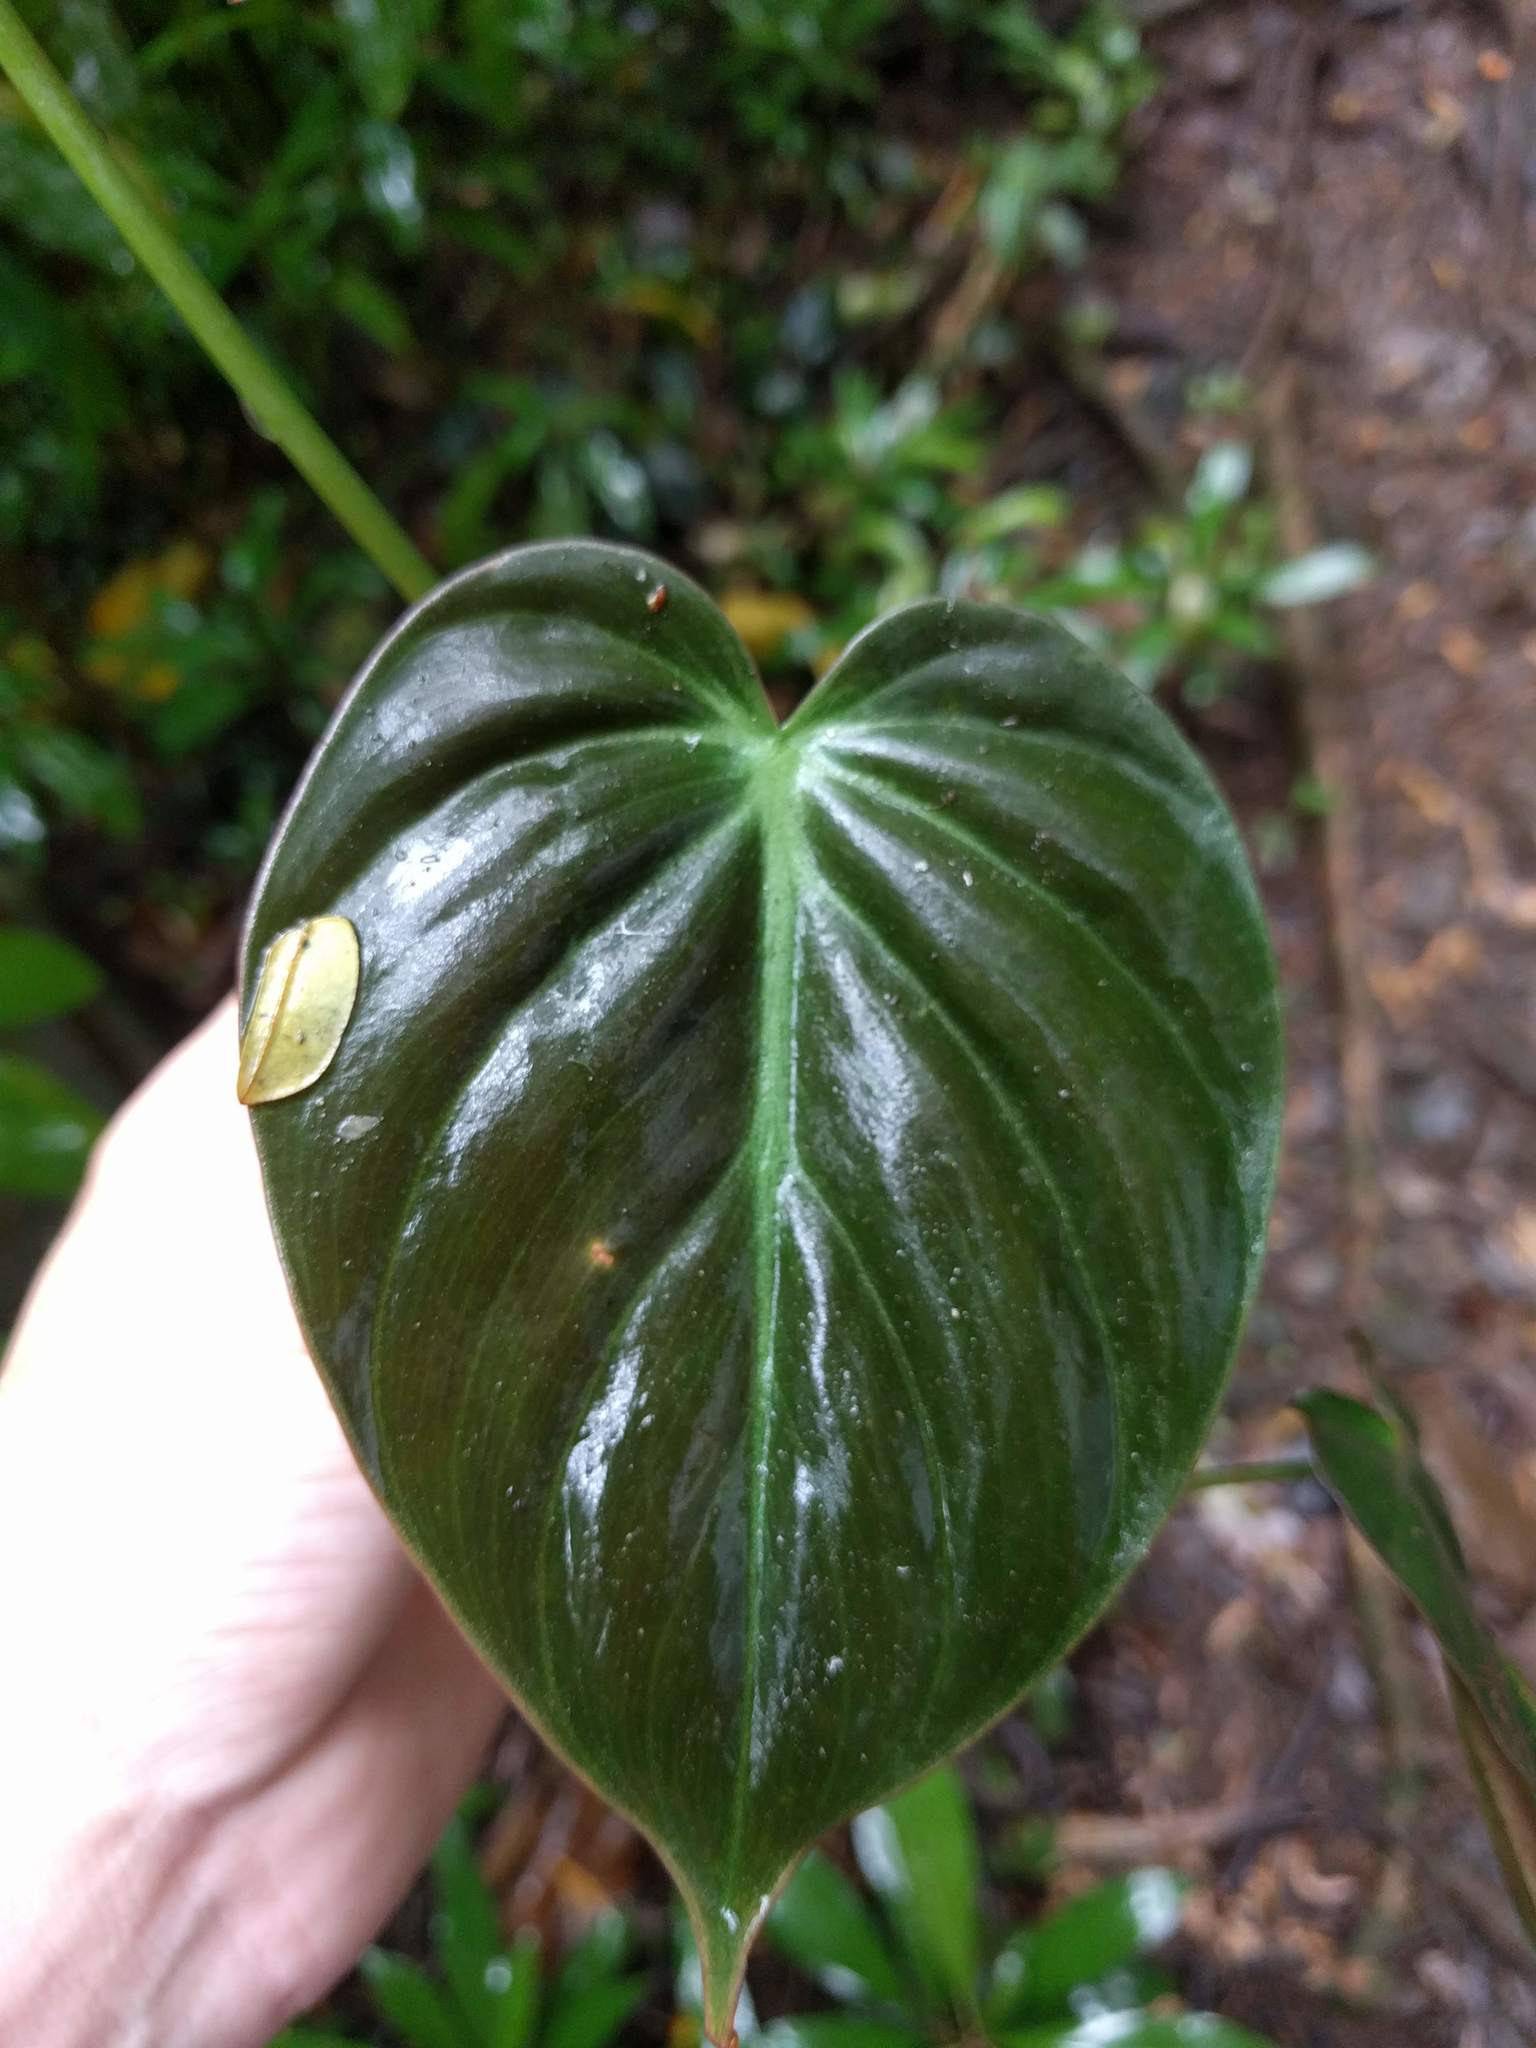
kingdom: Plantae
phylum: Tracheophyta
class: Liliopsida
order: Alismatales
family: Araceae
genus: Philodendron
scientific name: Philodendron hederaceum
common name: Vilevine
